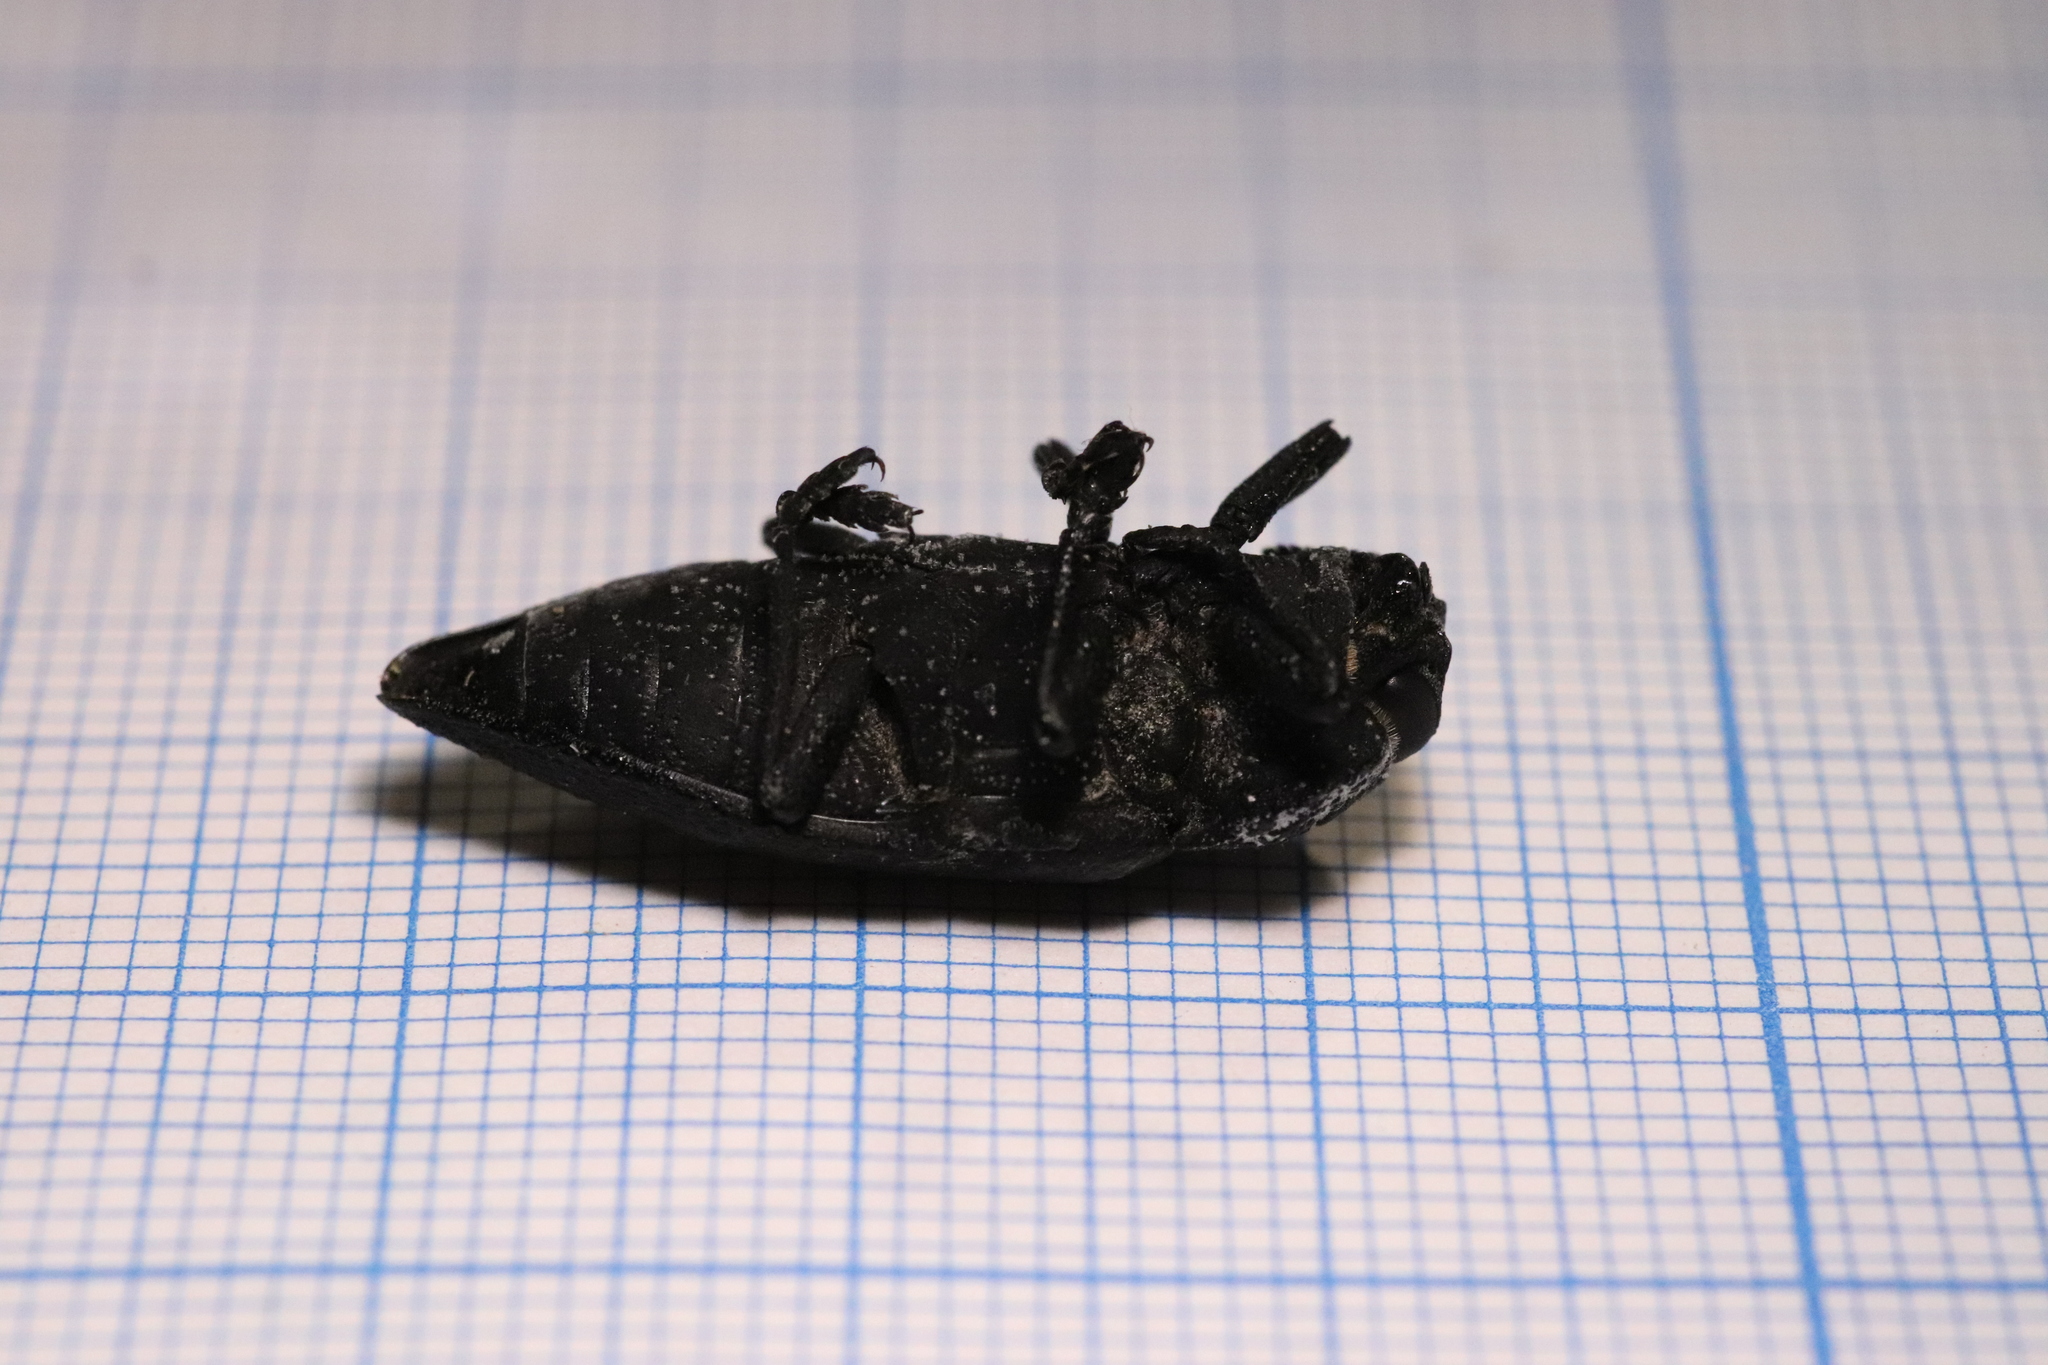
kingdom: Animalia
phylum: Arthropoda
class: Insecta
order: Coleoptera
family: Buprestidae
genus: Capnodis
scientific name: Capnodis tenebrionis
